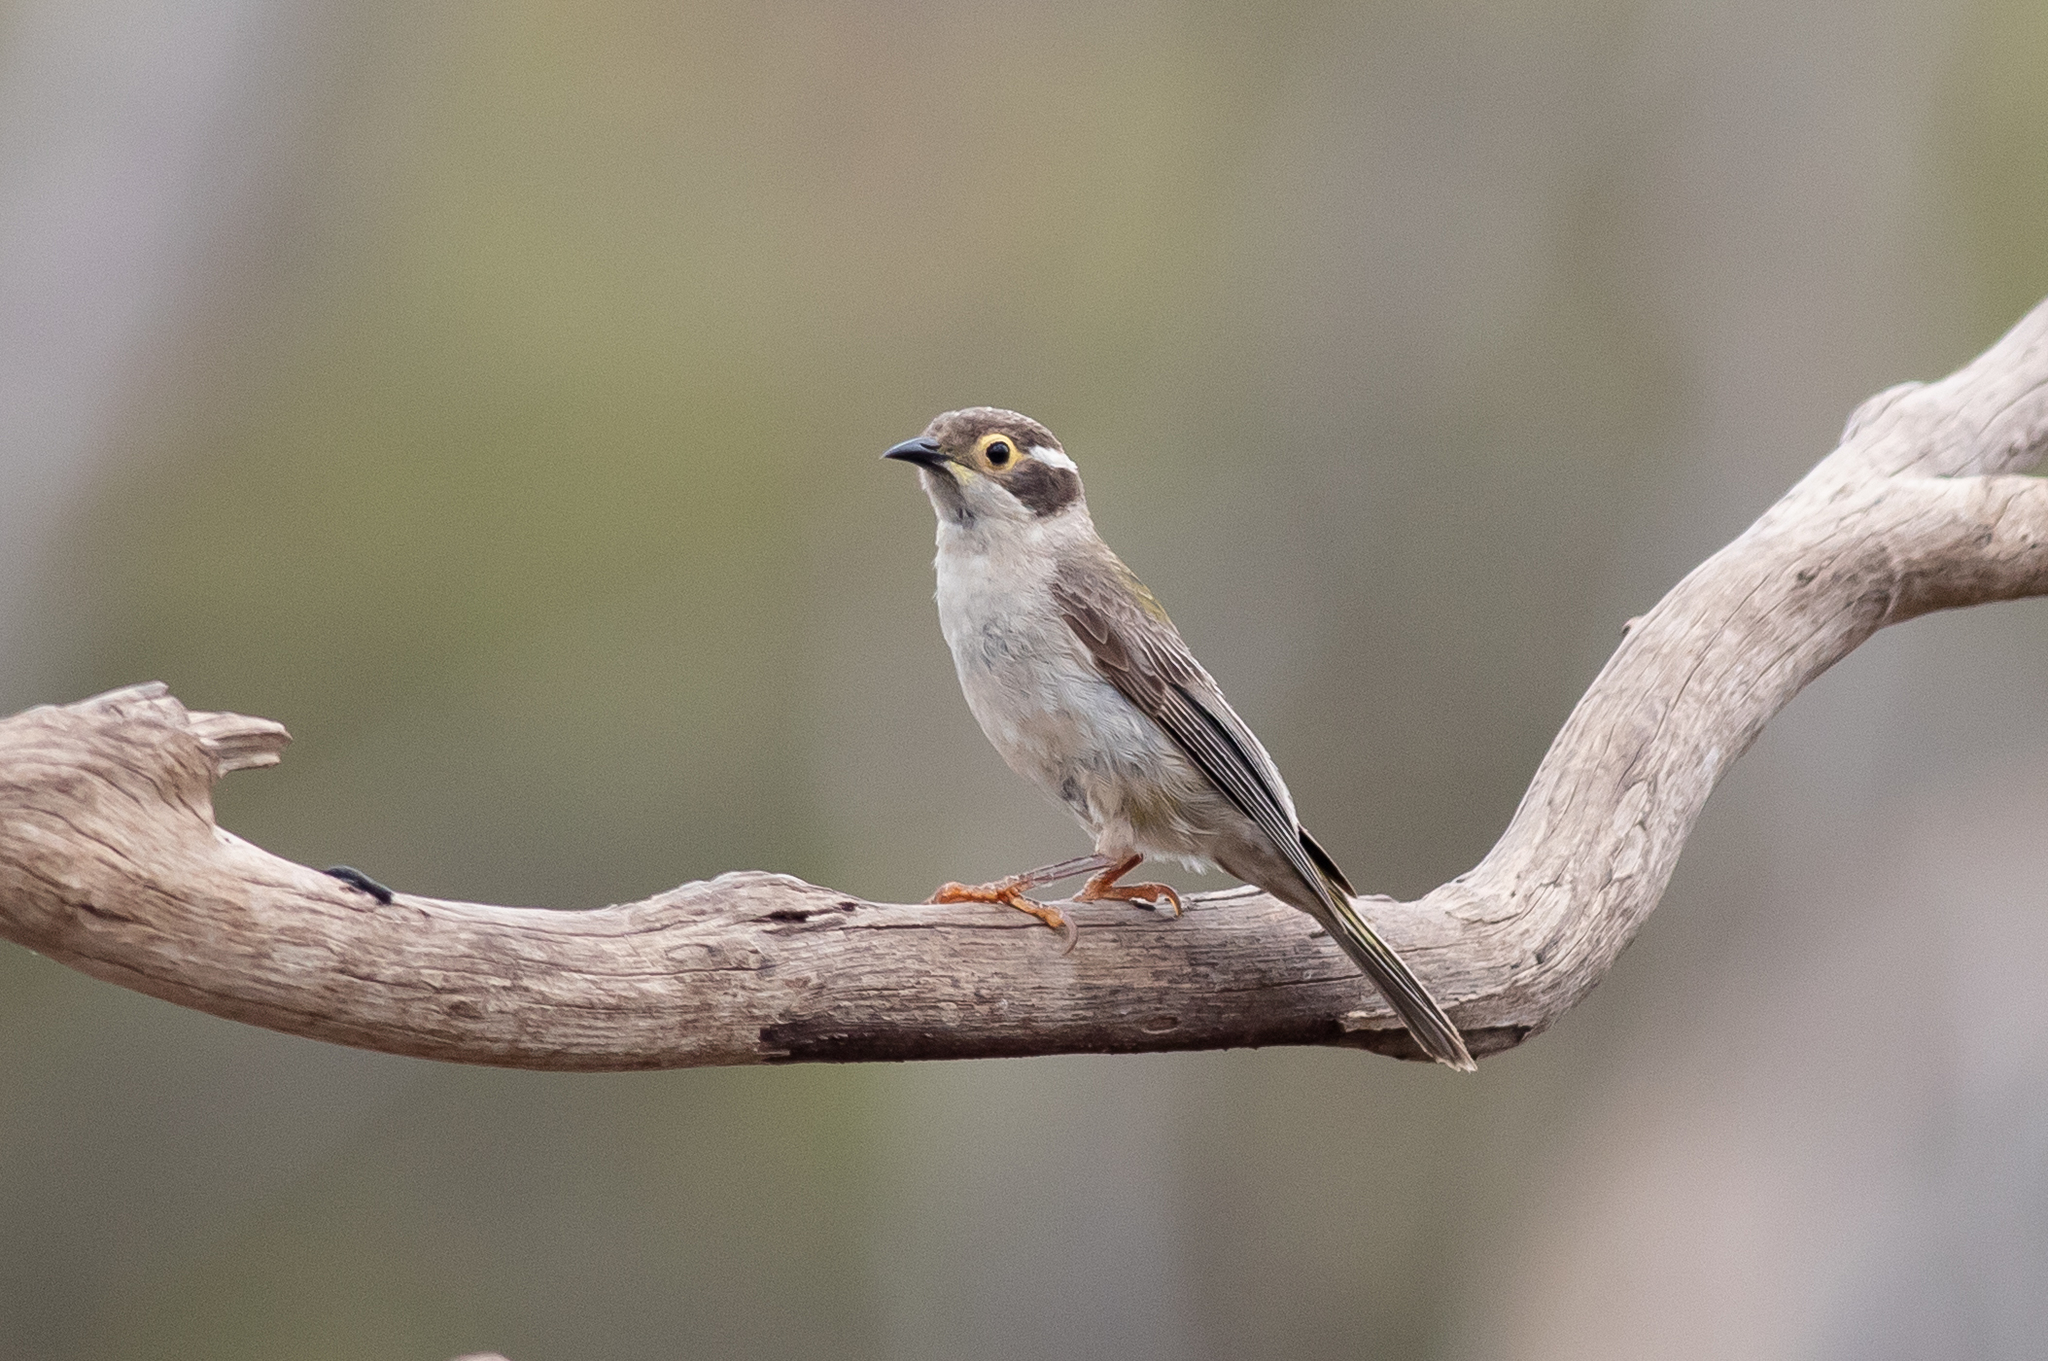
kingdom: Animalia
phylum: Chordata
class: Aves
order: Passeriformes
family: Meliphagidae
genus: Melithreptus
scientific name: Melithreptus brevirostris
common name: Brown-headed honeyeater
